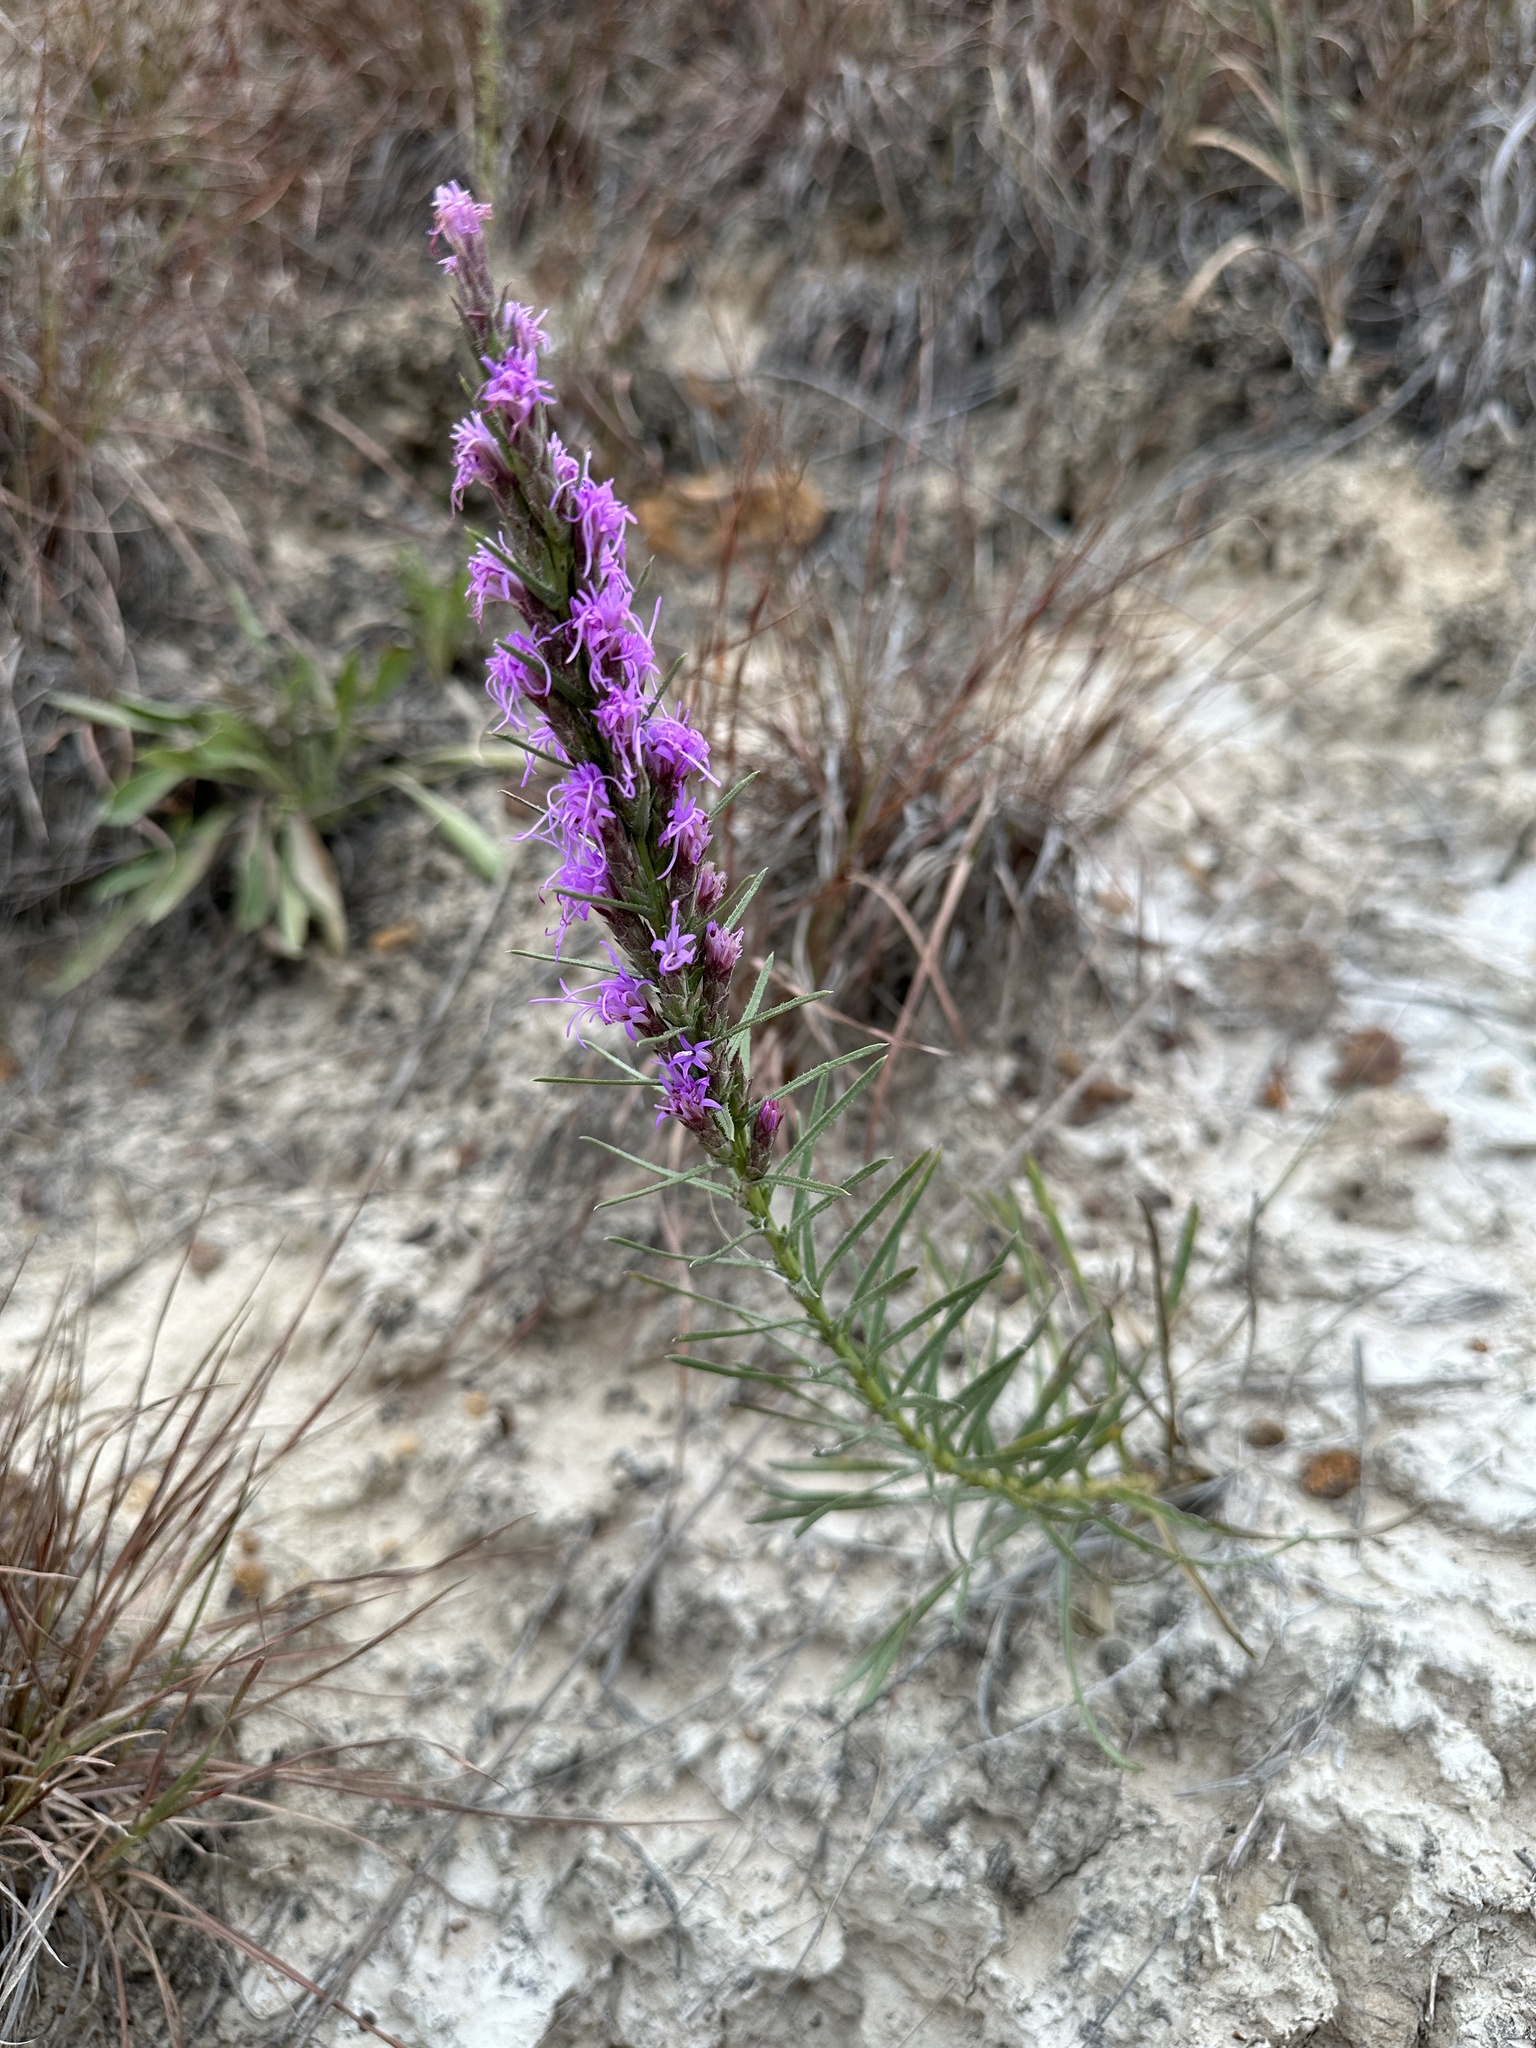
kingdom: Plantae
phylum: Tracheophyta
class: Magnoliopsida
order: Asterales
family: Asteraceae
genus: Liatris
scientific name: Liatris punctata
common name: Dotted gayfeather
